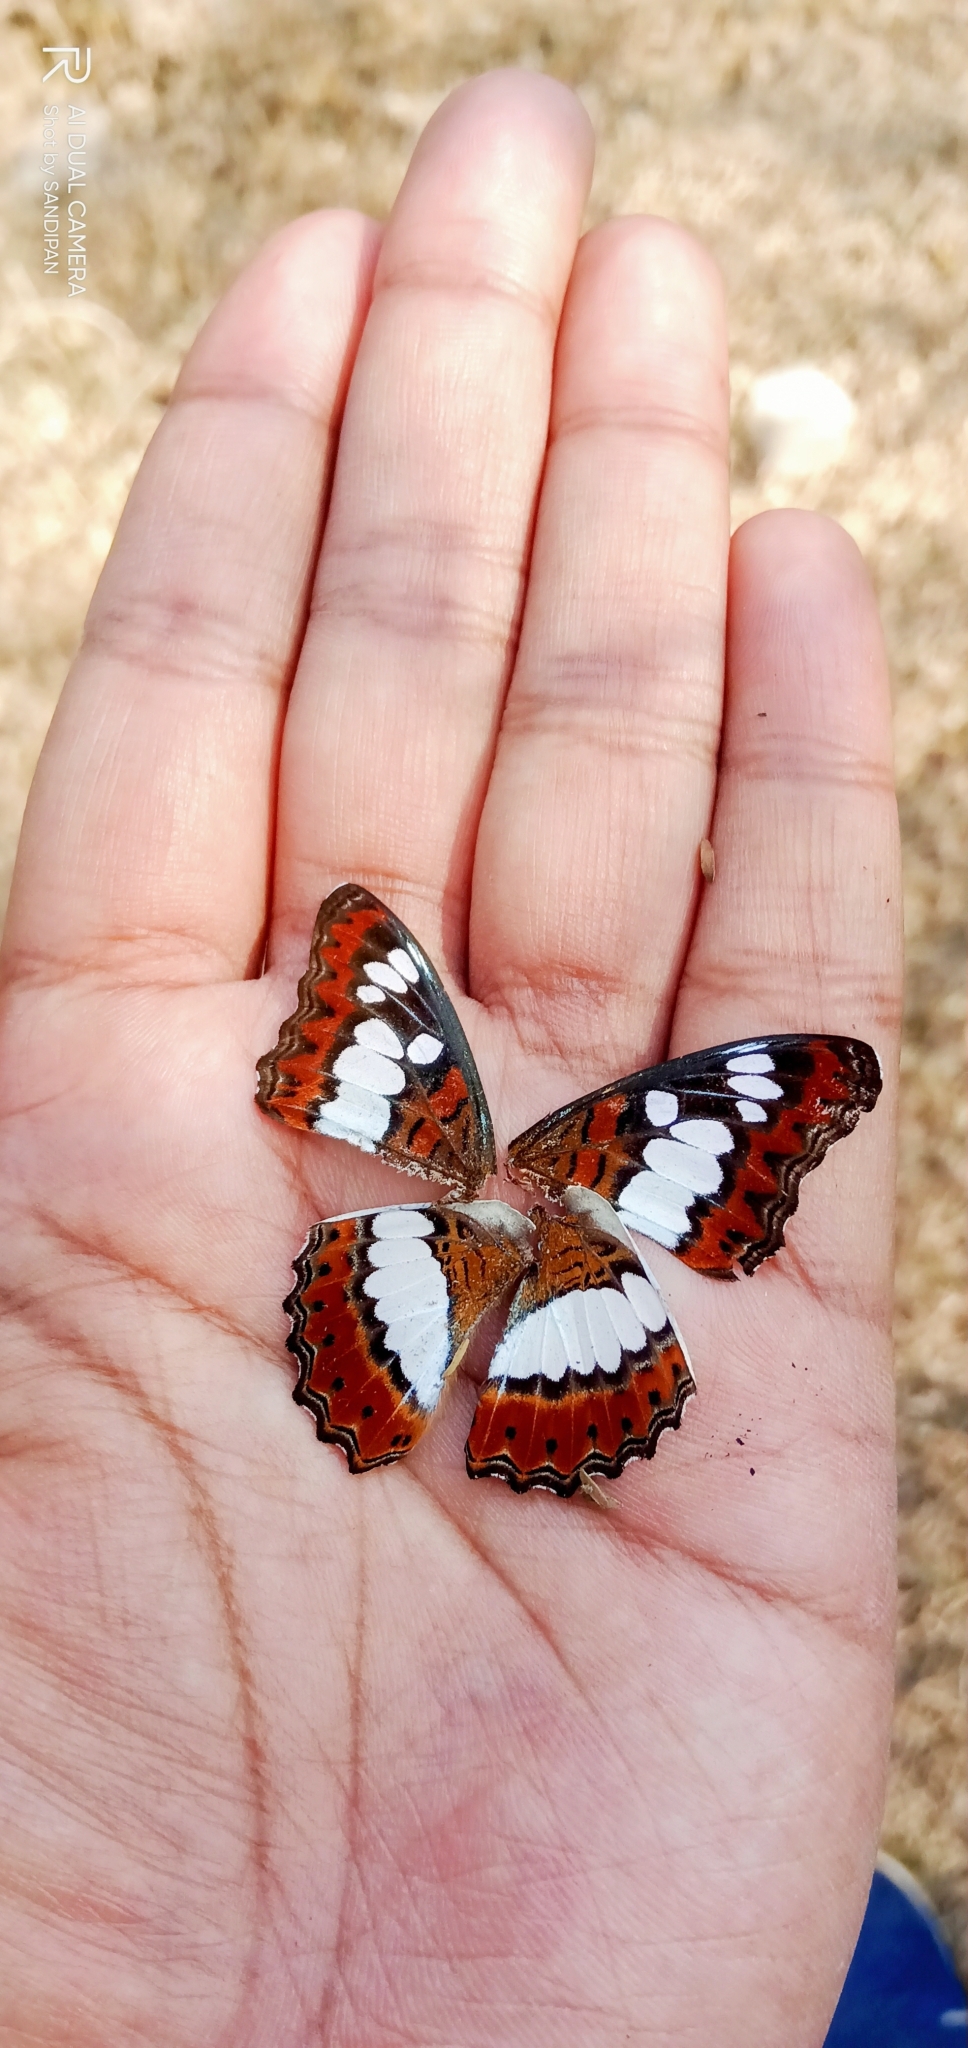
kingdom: Animalia
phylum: Arthropoda
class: Insecta
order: Lepidoptera
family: Nymphalidae
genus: Limenitis
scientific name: Limenitis Moduza procris
